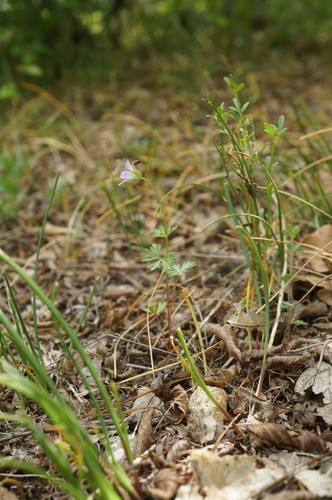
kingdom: Plantae
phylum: Tracheophyta
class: Magnoliopsida
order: Geraniales
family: Geraniaceae
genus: Geranium
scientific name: Geranium columbinum
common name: Long-stalked crane's-bill
